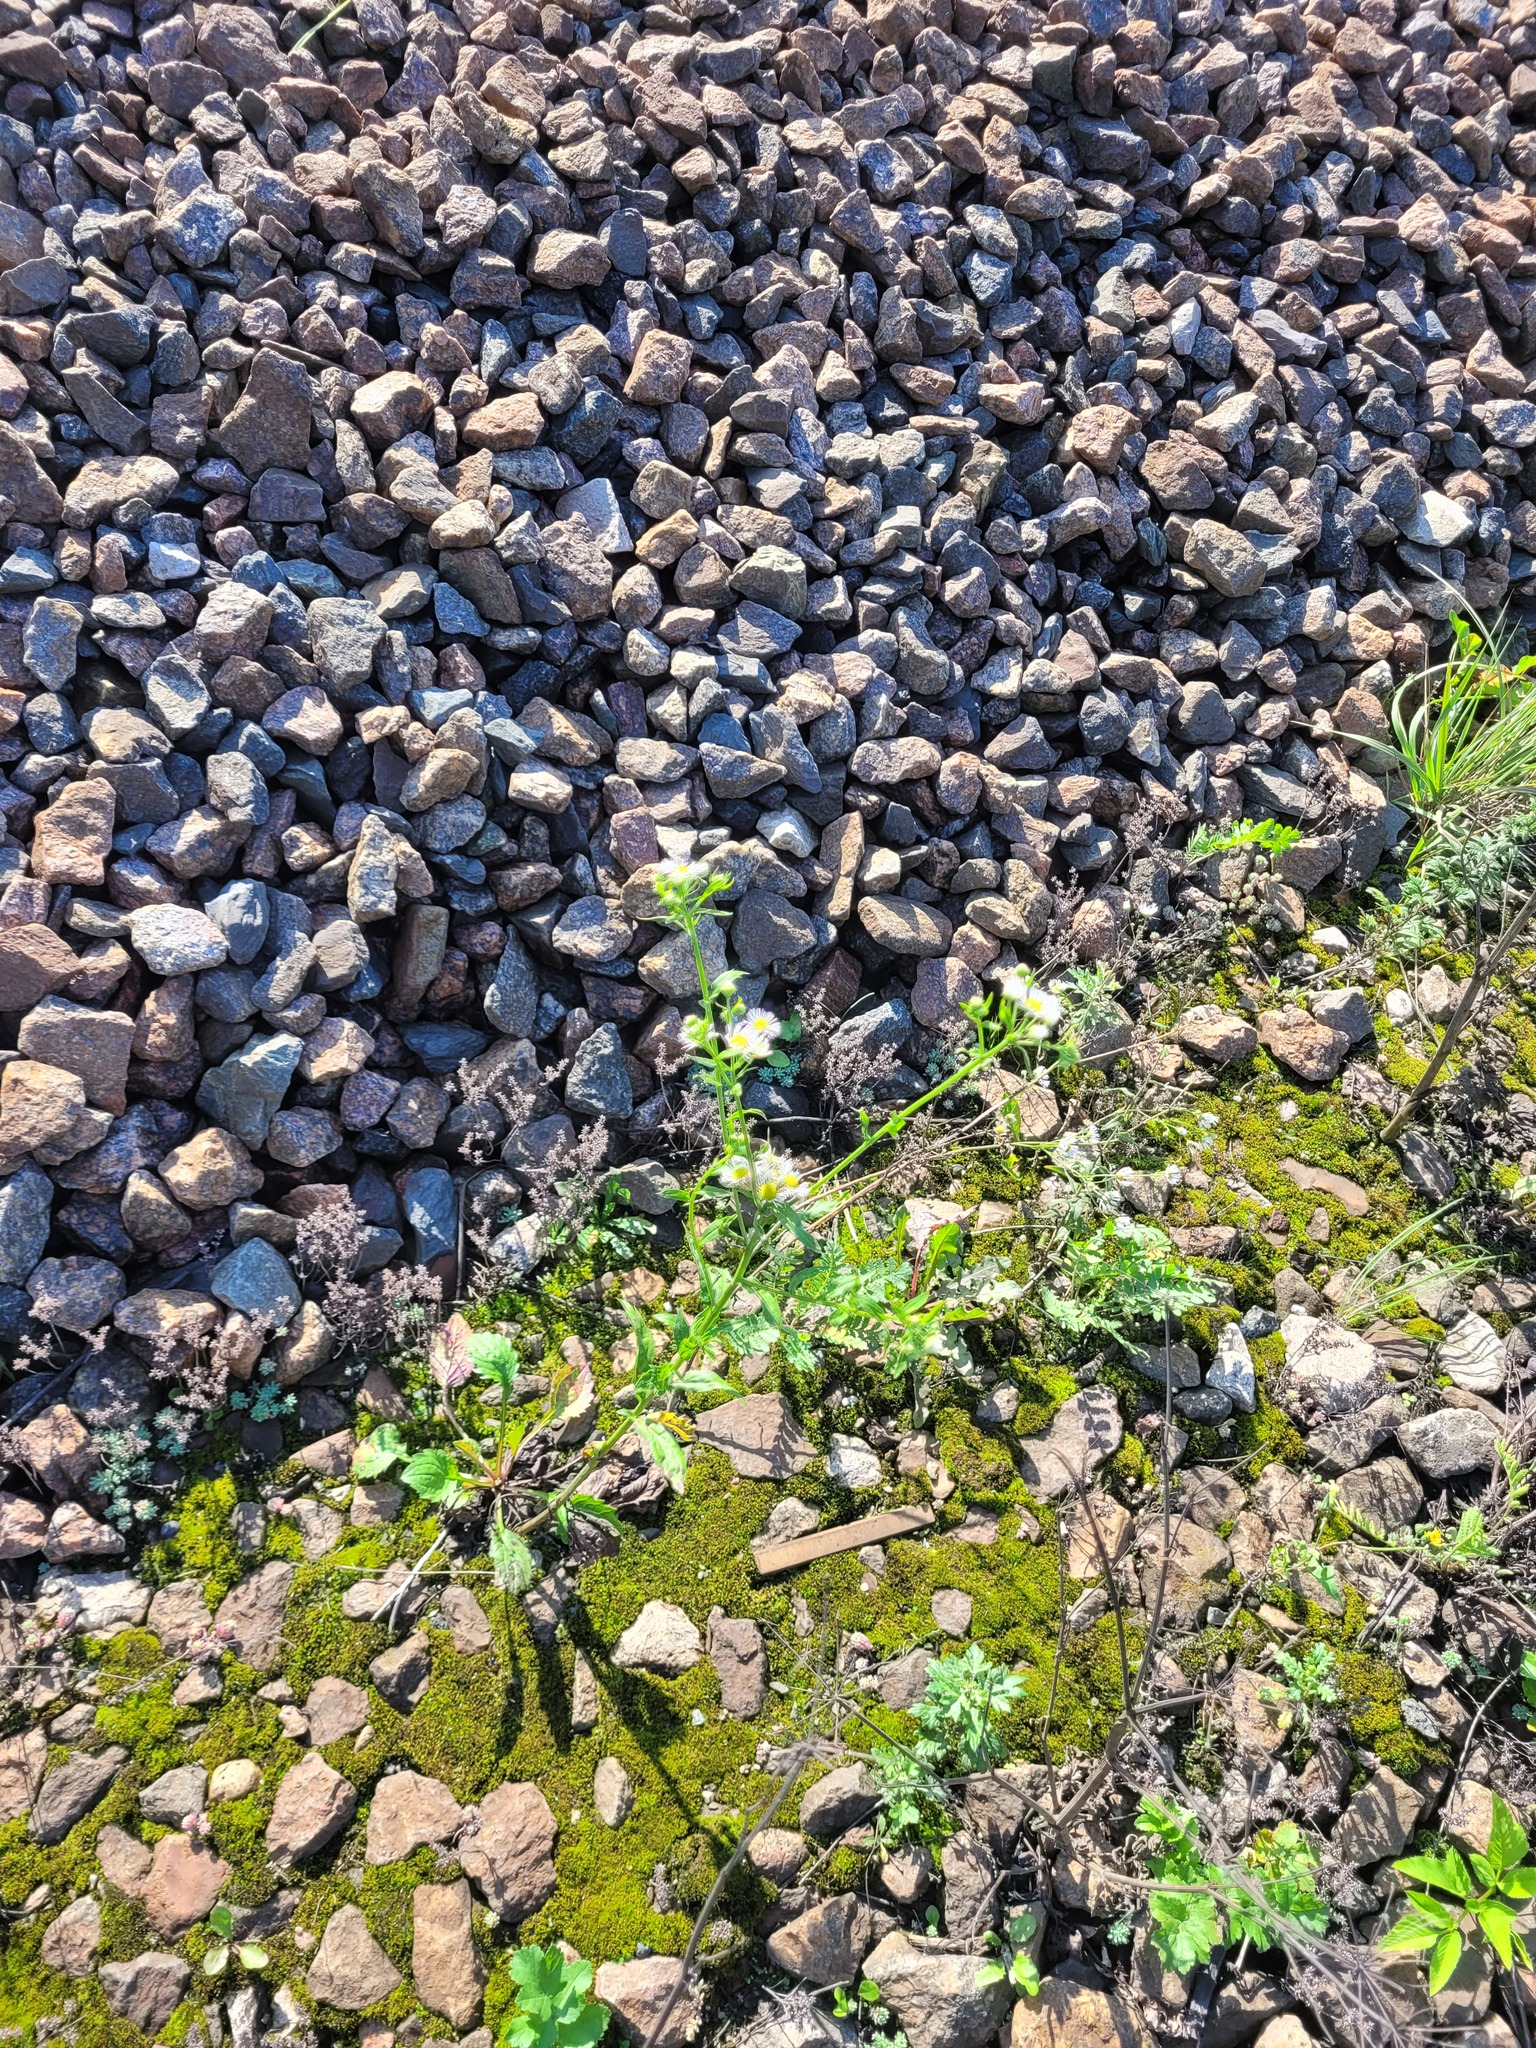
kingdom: Plantae
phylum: Tracheophyta
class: Magnoliopsida
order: Asterales
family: Asteraceae
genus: Erigeron
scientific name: Erigeron annuus
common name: Tall fleabane
